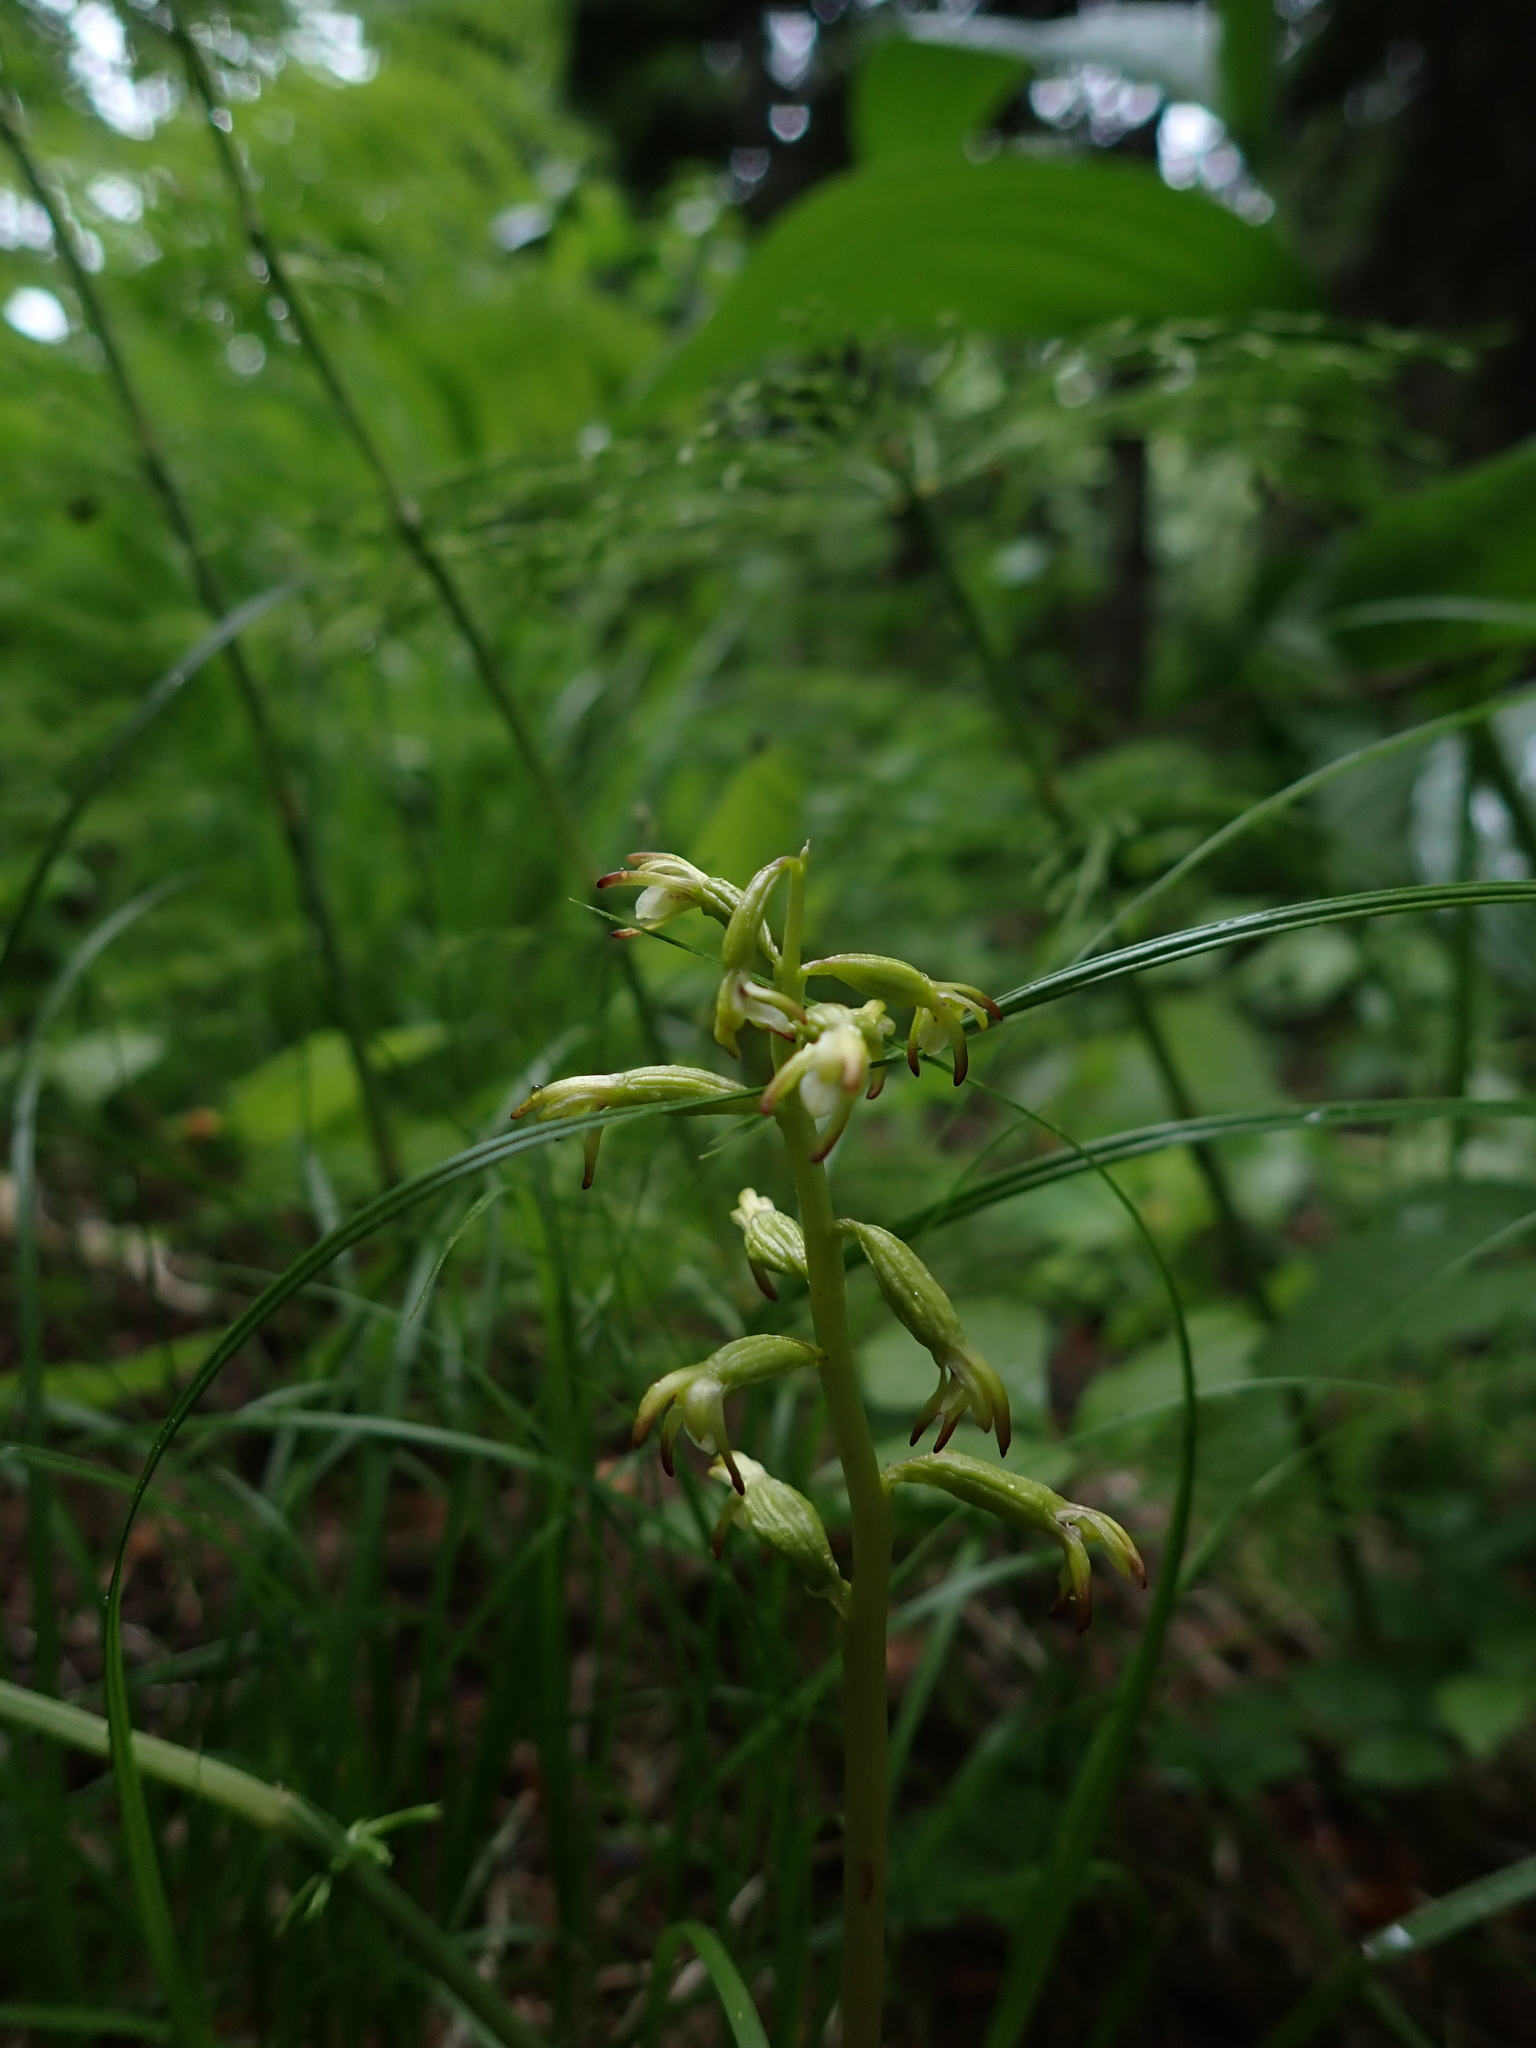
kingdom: Plantae
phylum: Tracheophyta
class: Liliopsida
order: Asparagales
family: Orchidaceae
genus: Corallorhiza
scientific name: Corallorhiza trifida
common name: Yellow coralroot
